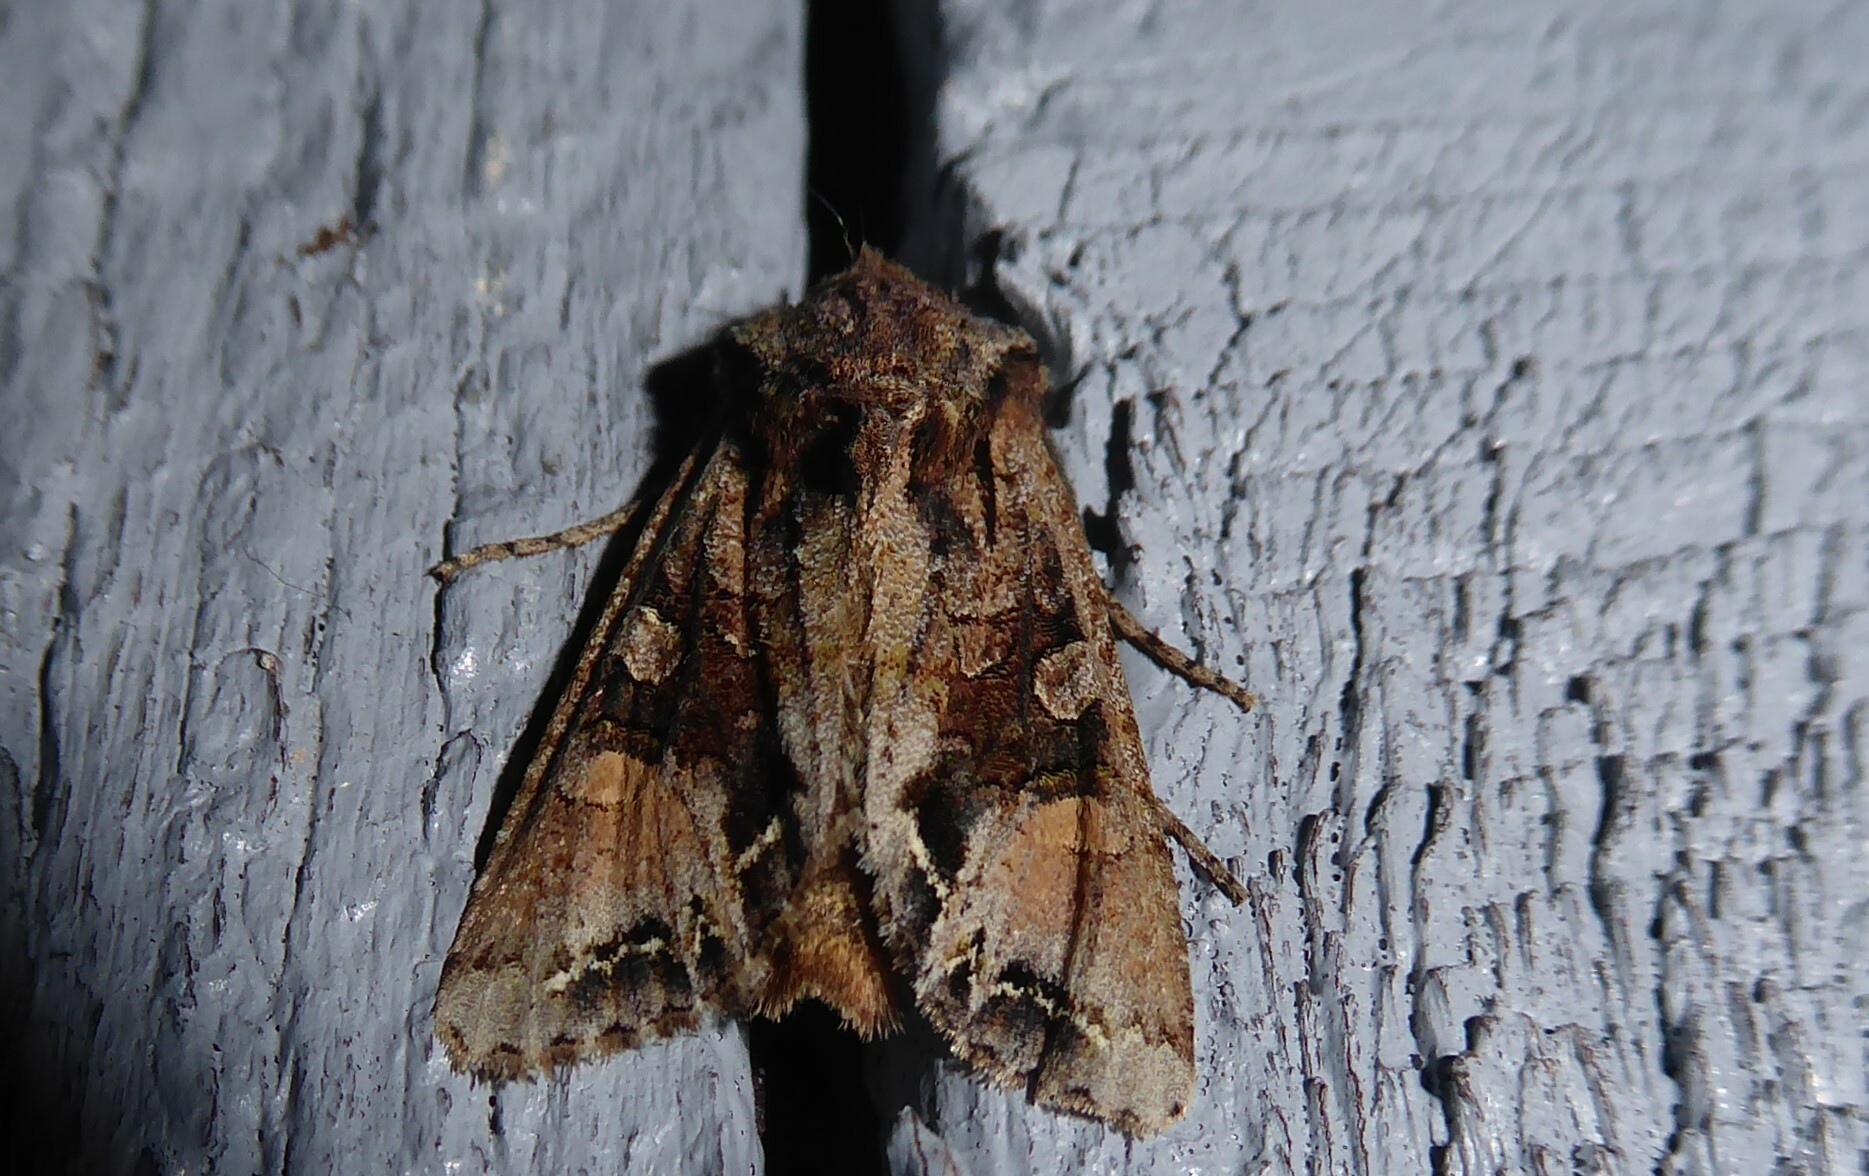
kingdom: Animalia
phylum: Arthropoda
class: Insecta
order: Lepidoptera
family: Noctuidae
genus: Ichneutica
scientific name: Ichneutica
